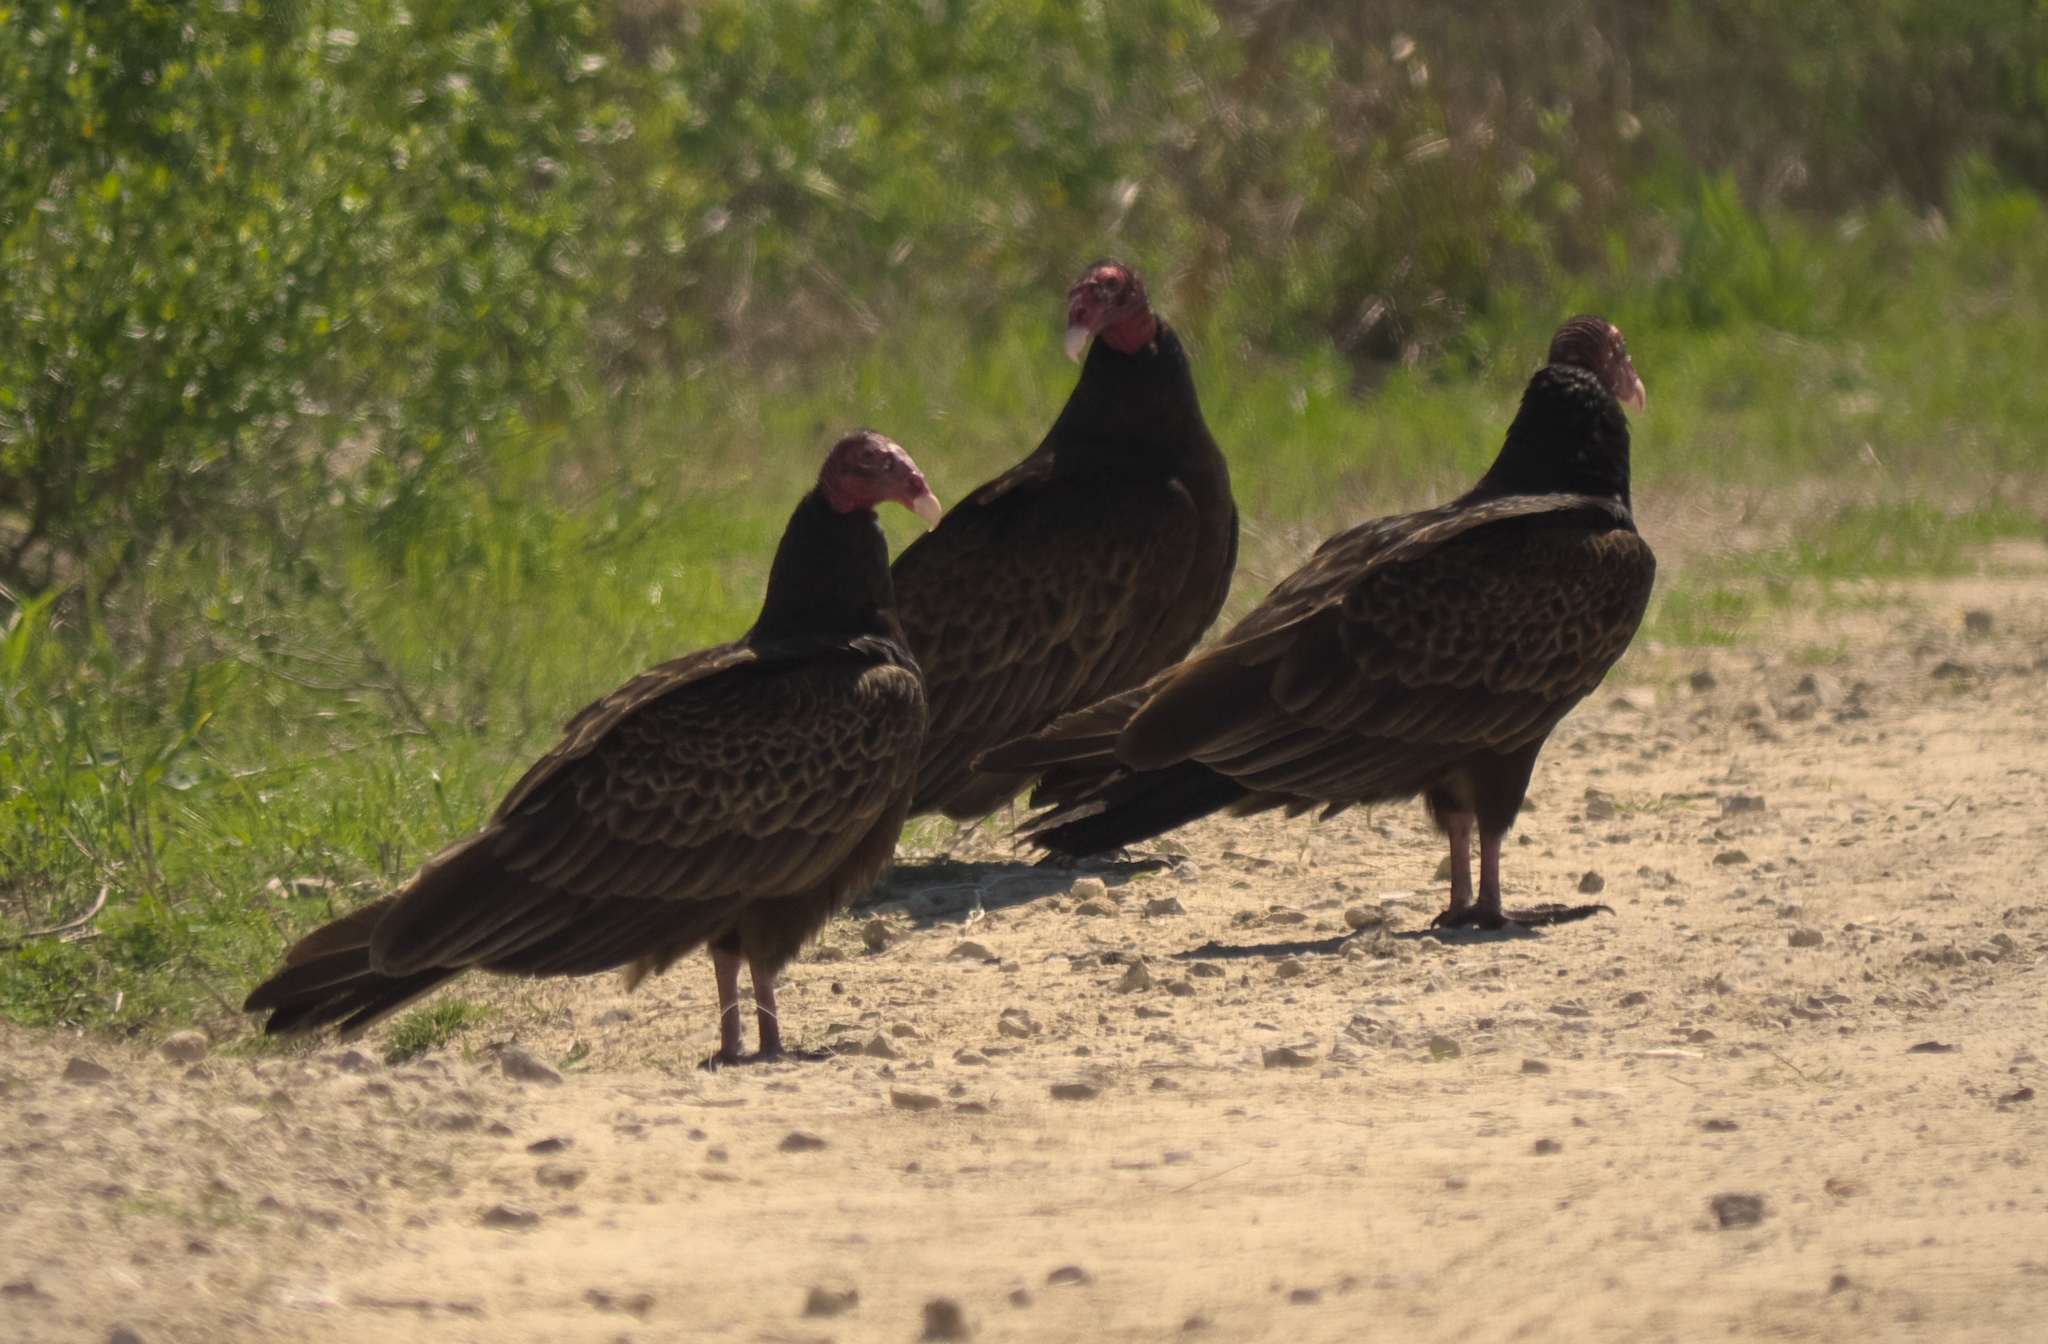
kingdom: Animalia
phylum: Chordata
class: Aves
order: Accipitriformes
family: Cathartidae
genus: Cathartes
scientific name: Cathartes aura
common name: Turkey vulture
